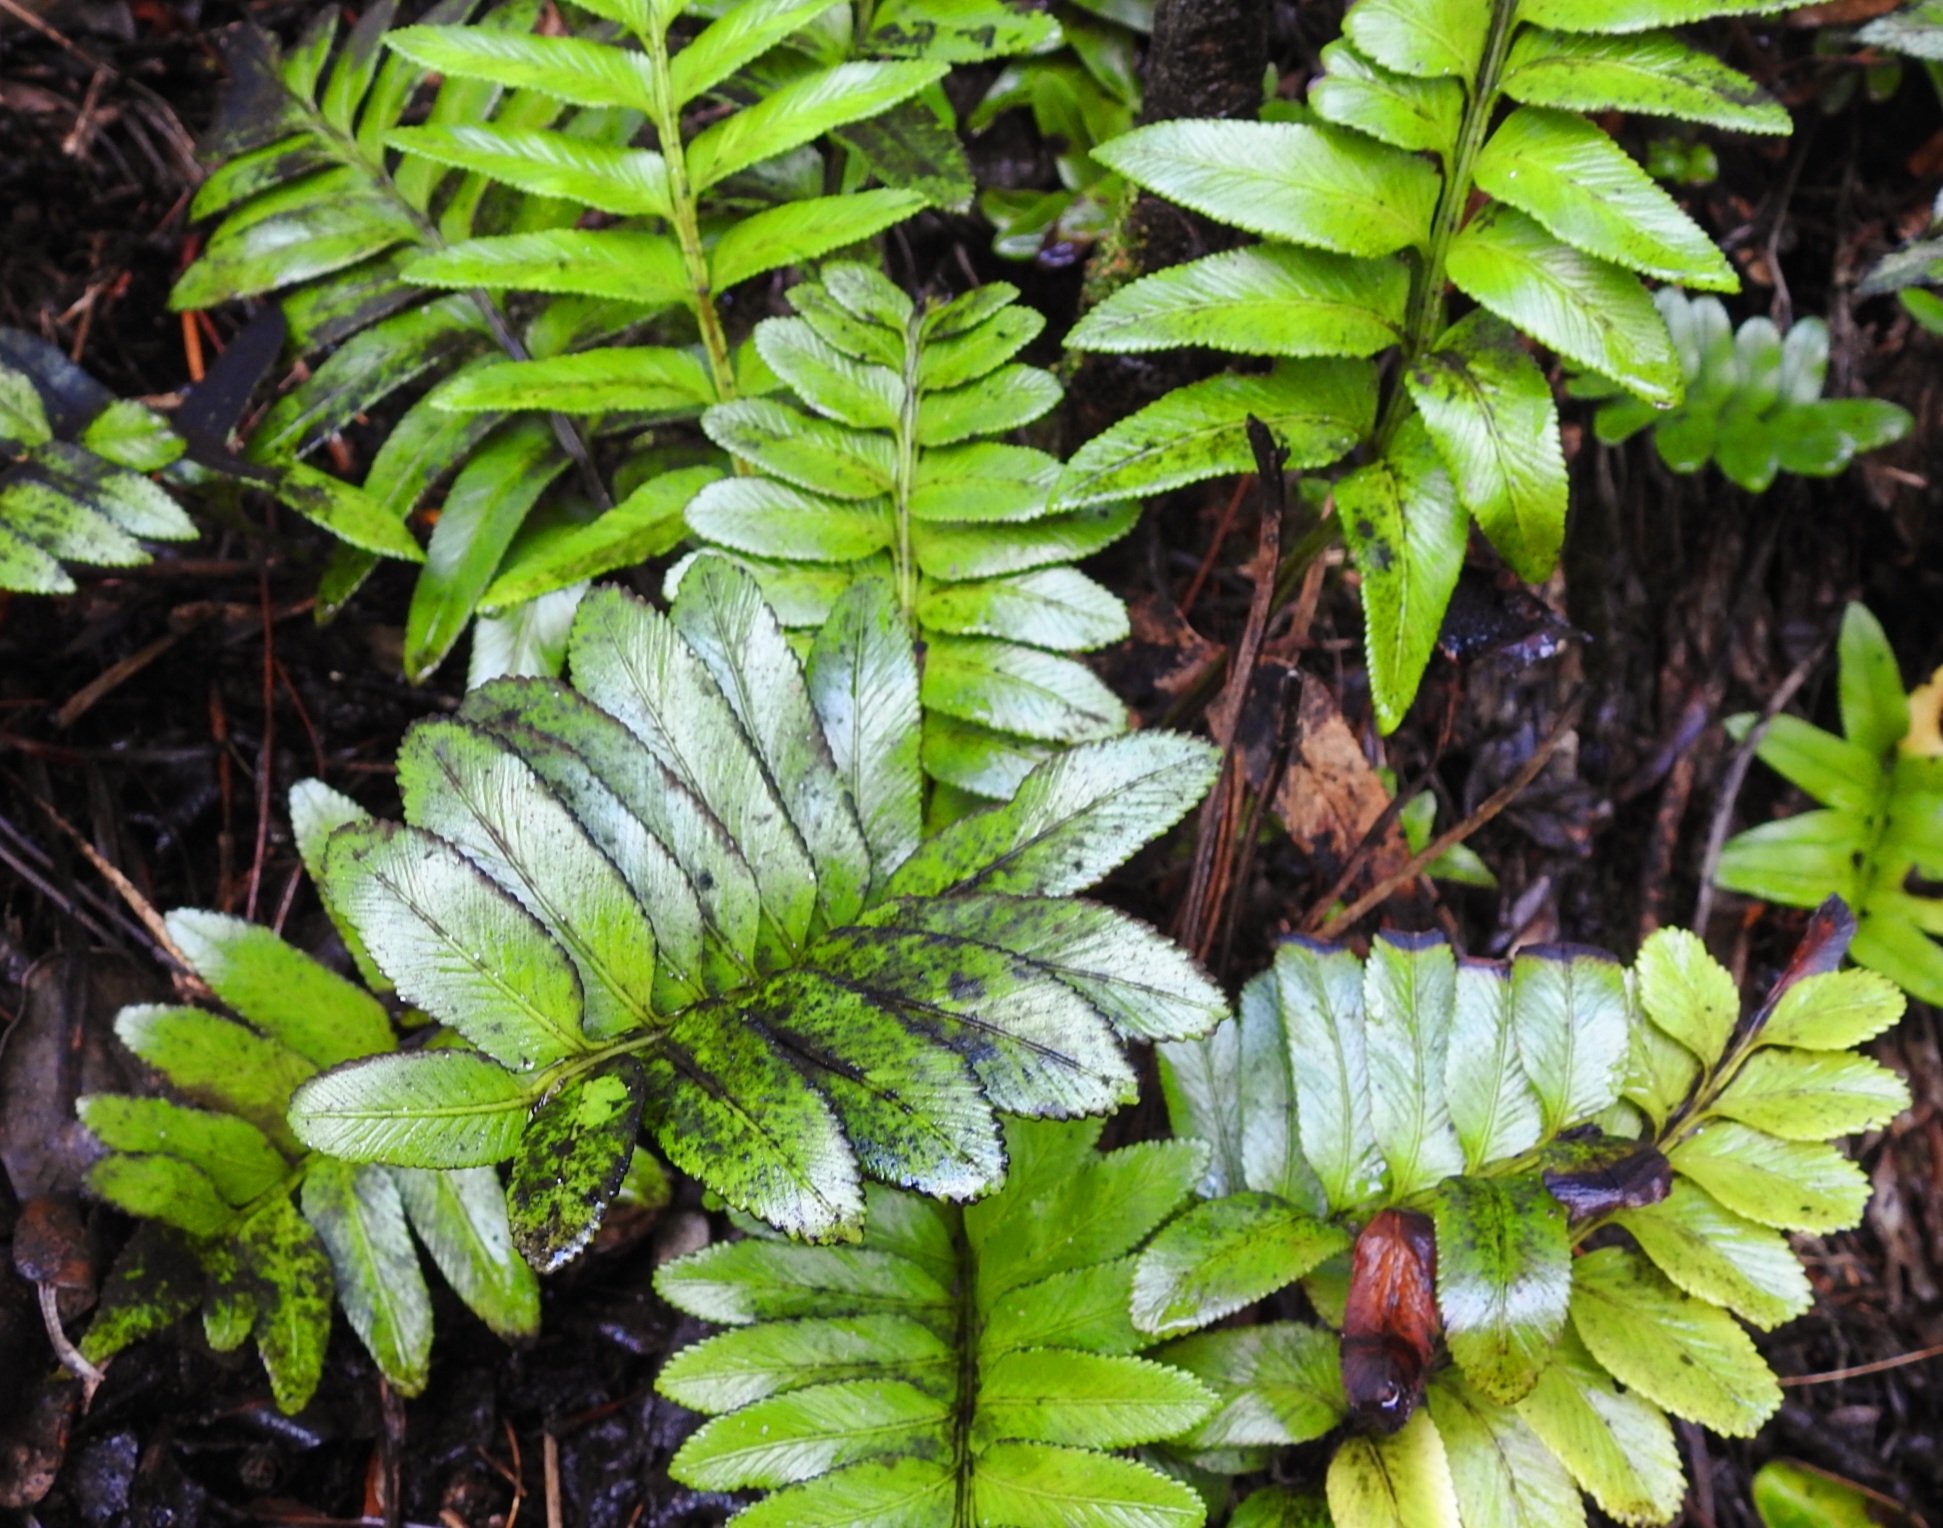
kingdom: Plantae
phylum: Tracheophyta
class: Polypodiopsida
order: Polypodiales
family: Aspleniaceae
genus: Asplenium
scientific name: Asplenium obtusatum
